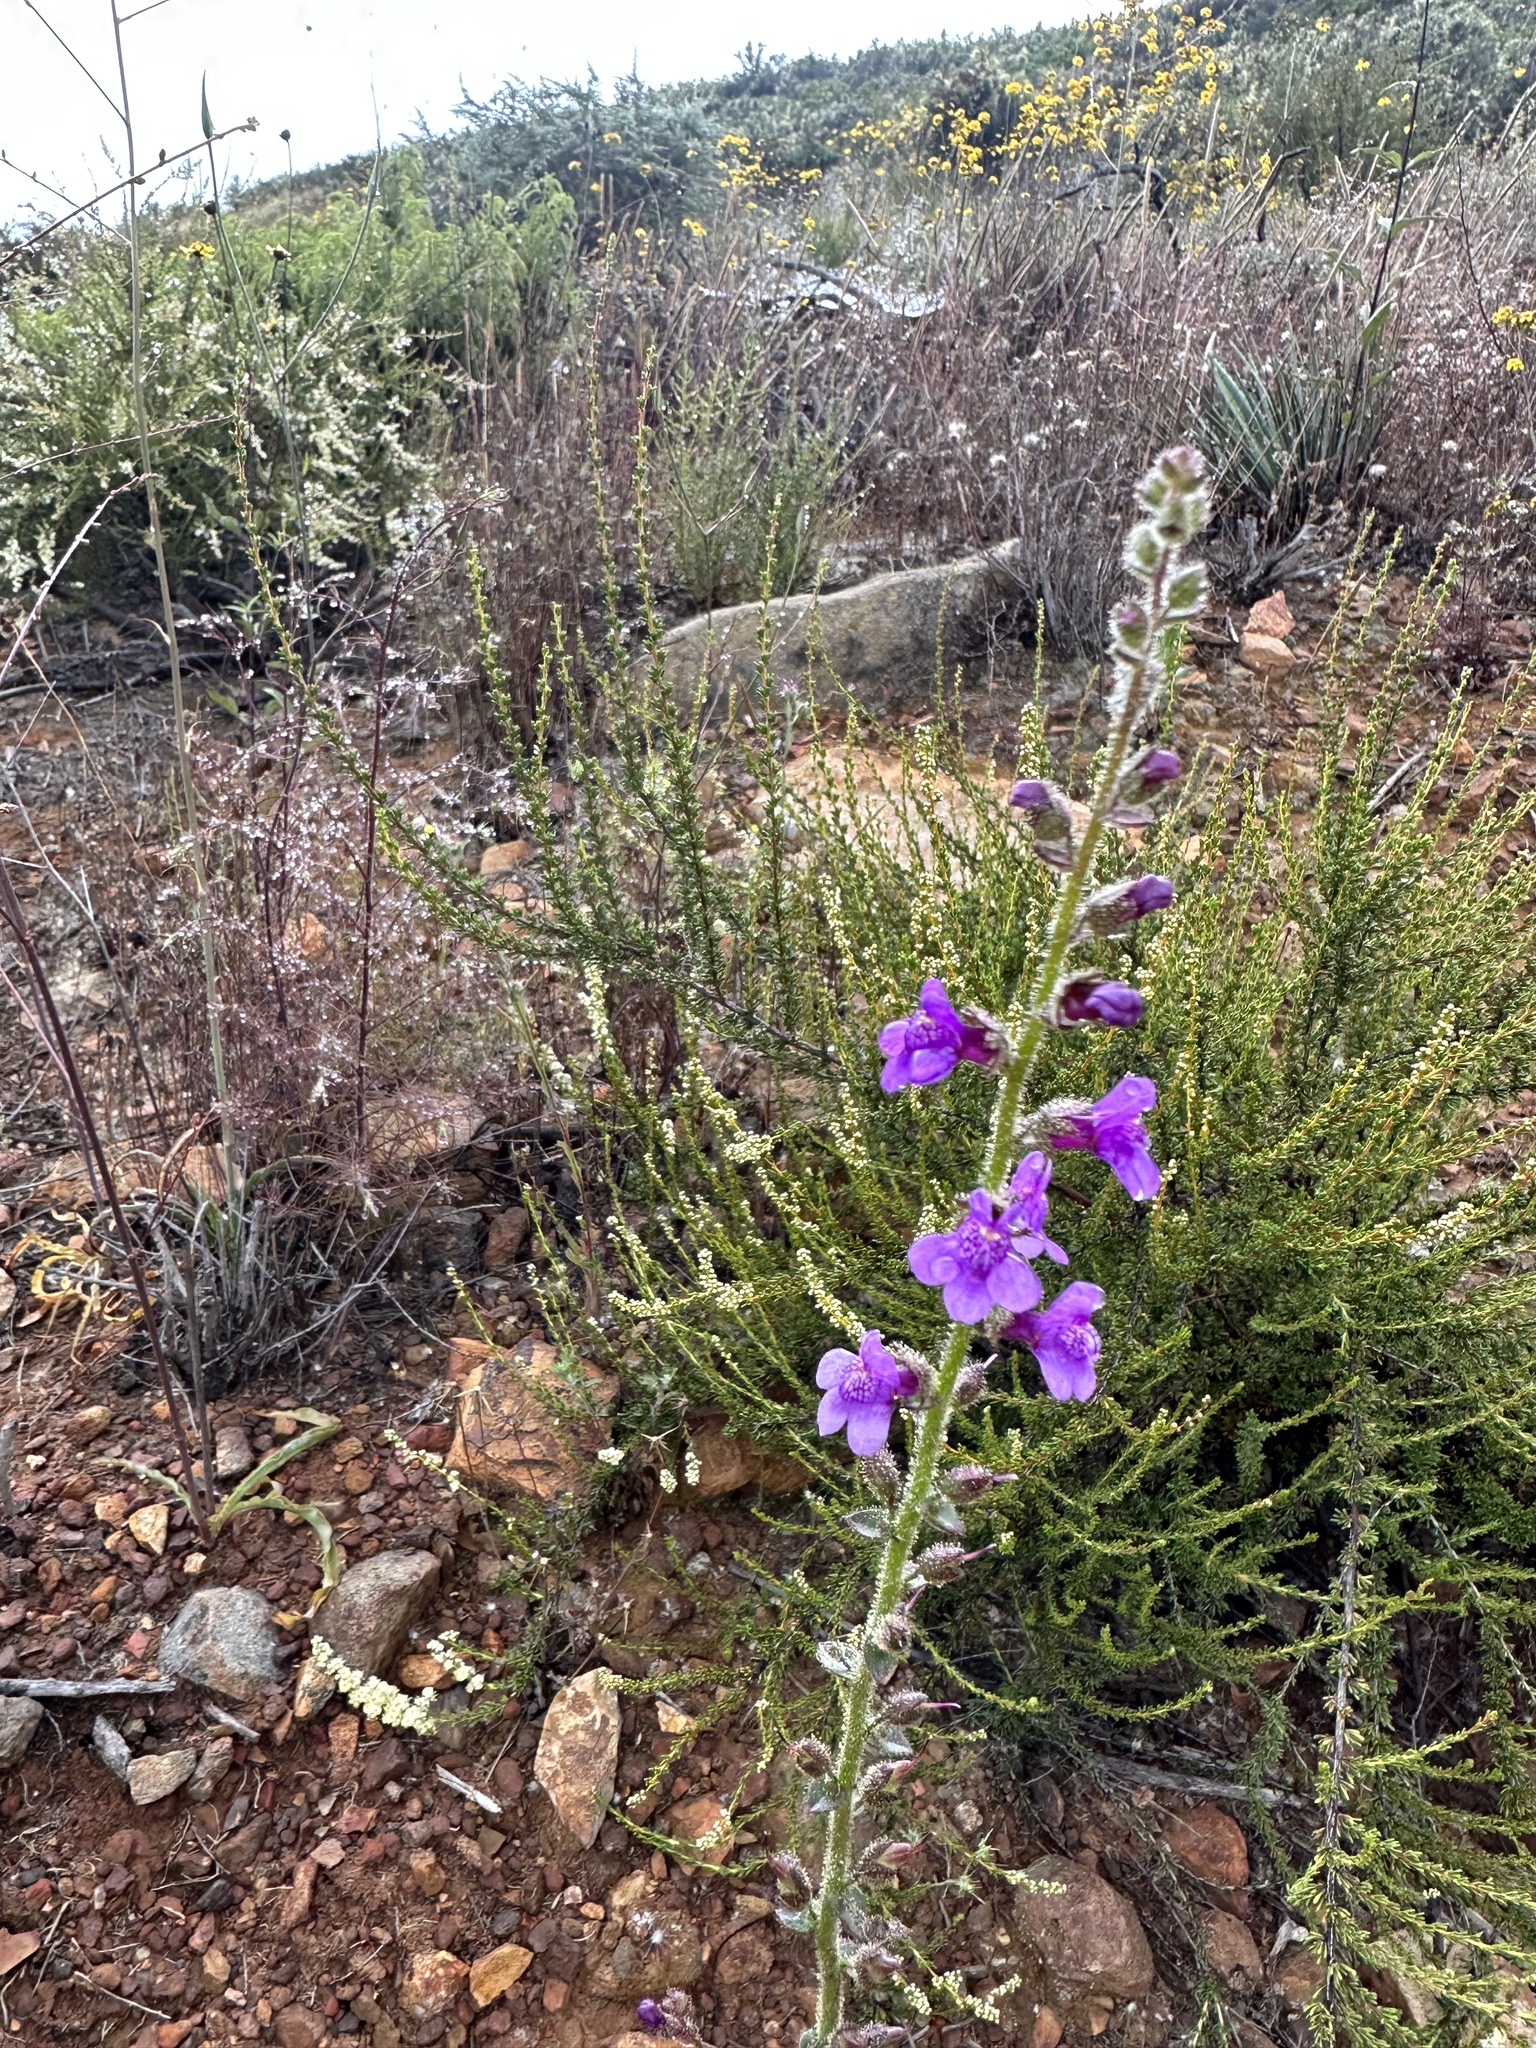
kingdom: Plantae
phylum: Tracheophyta
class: Magnoliopsida
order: Lamiales
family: Plantaginaceae
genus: Sairocarpus
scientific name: Sairocarpus nuttallianus
